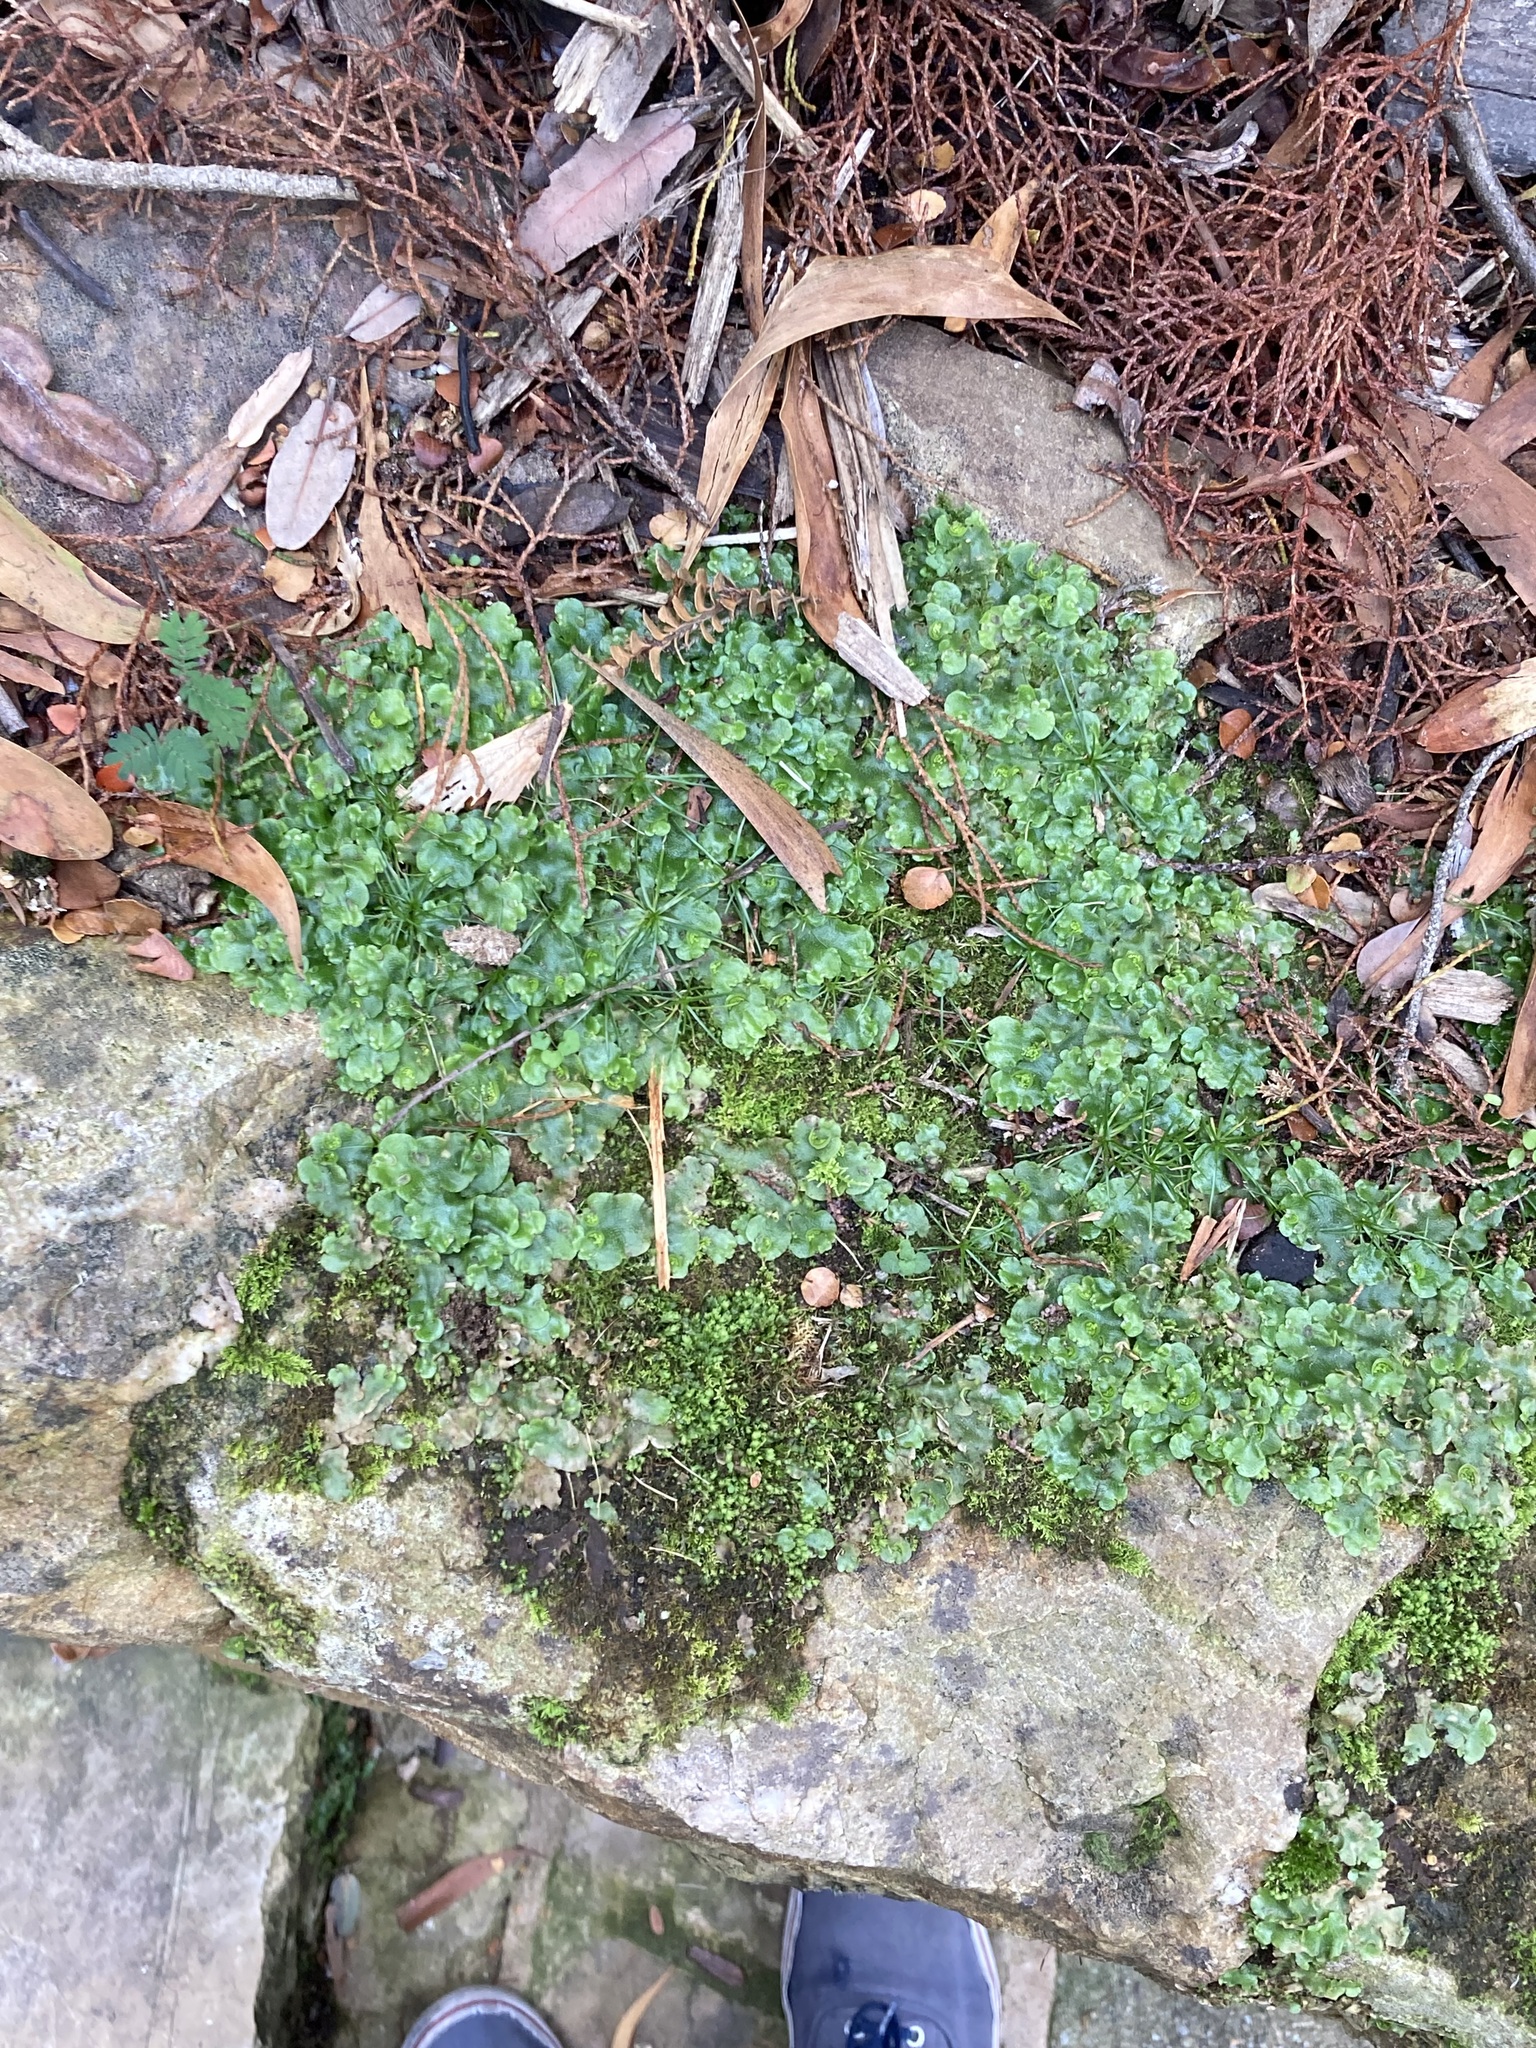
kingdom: Plantae
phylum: Marchantiophyta
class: Marchantiopsida
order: Lunulariales
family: Lunulariaceae
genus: Lunularia
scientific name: Lunularia cruciata
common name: Crescent-cup liverwort
